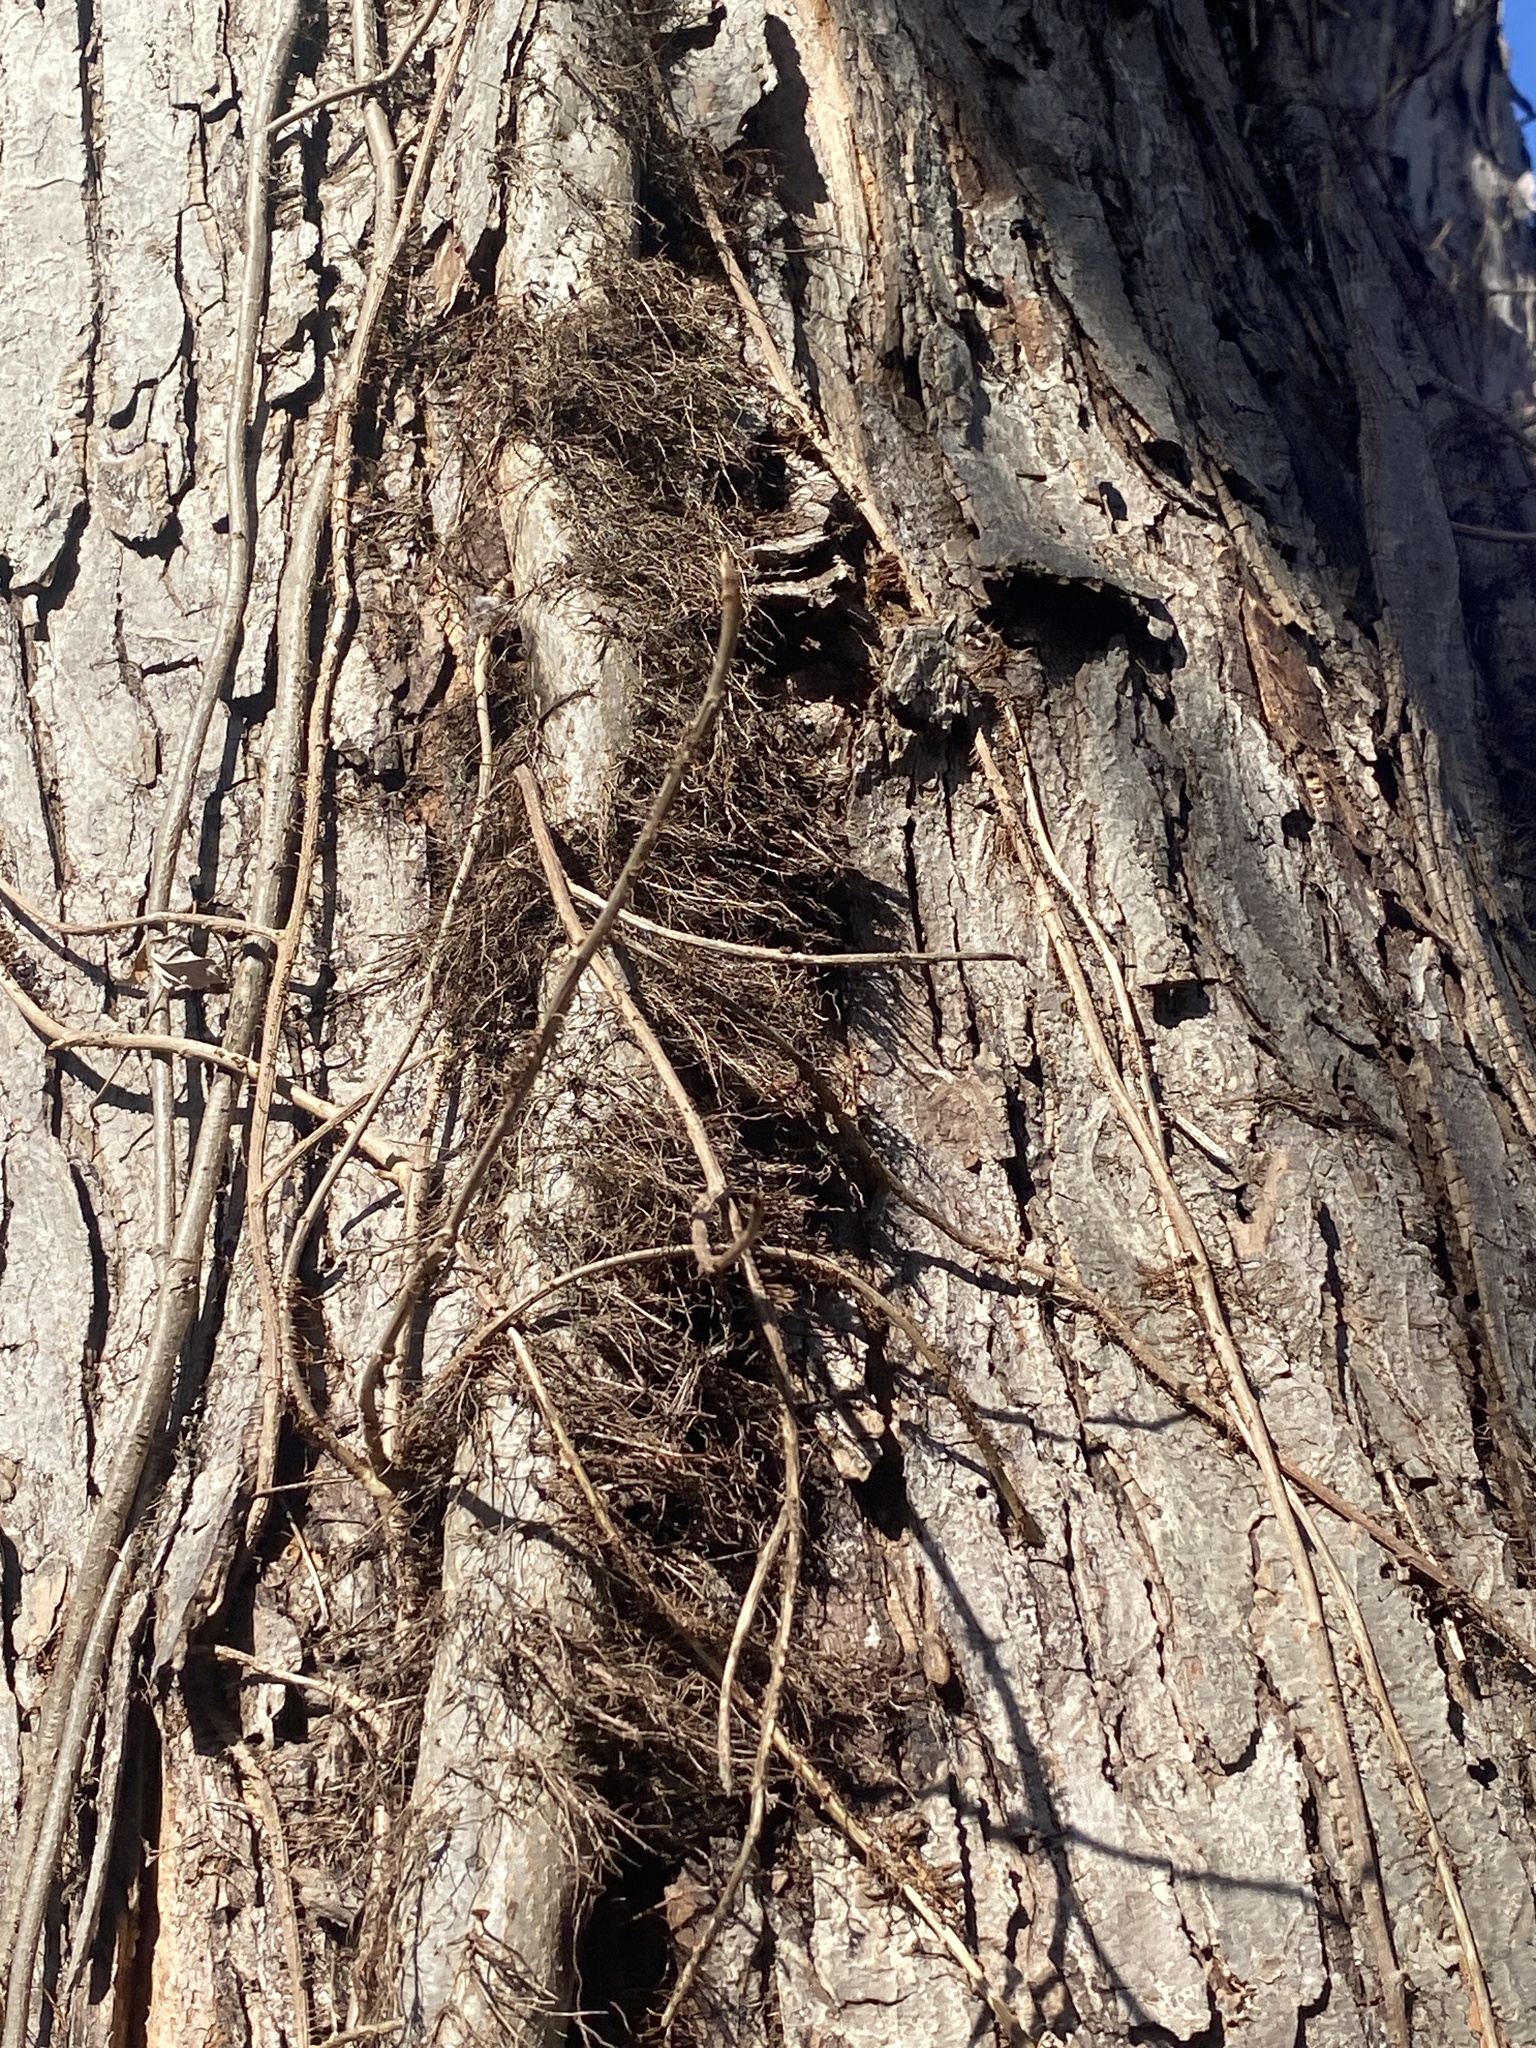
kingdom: Plantae
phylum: Tracheophyta
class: Magnoliopsida
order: Sapindales
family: Anacardiaceae
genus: Toxicodendron
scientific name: Toxicodendron radicans
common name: Poison ivy
